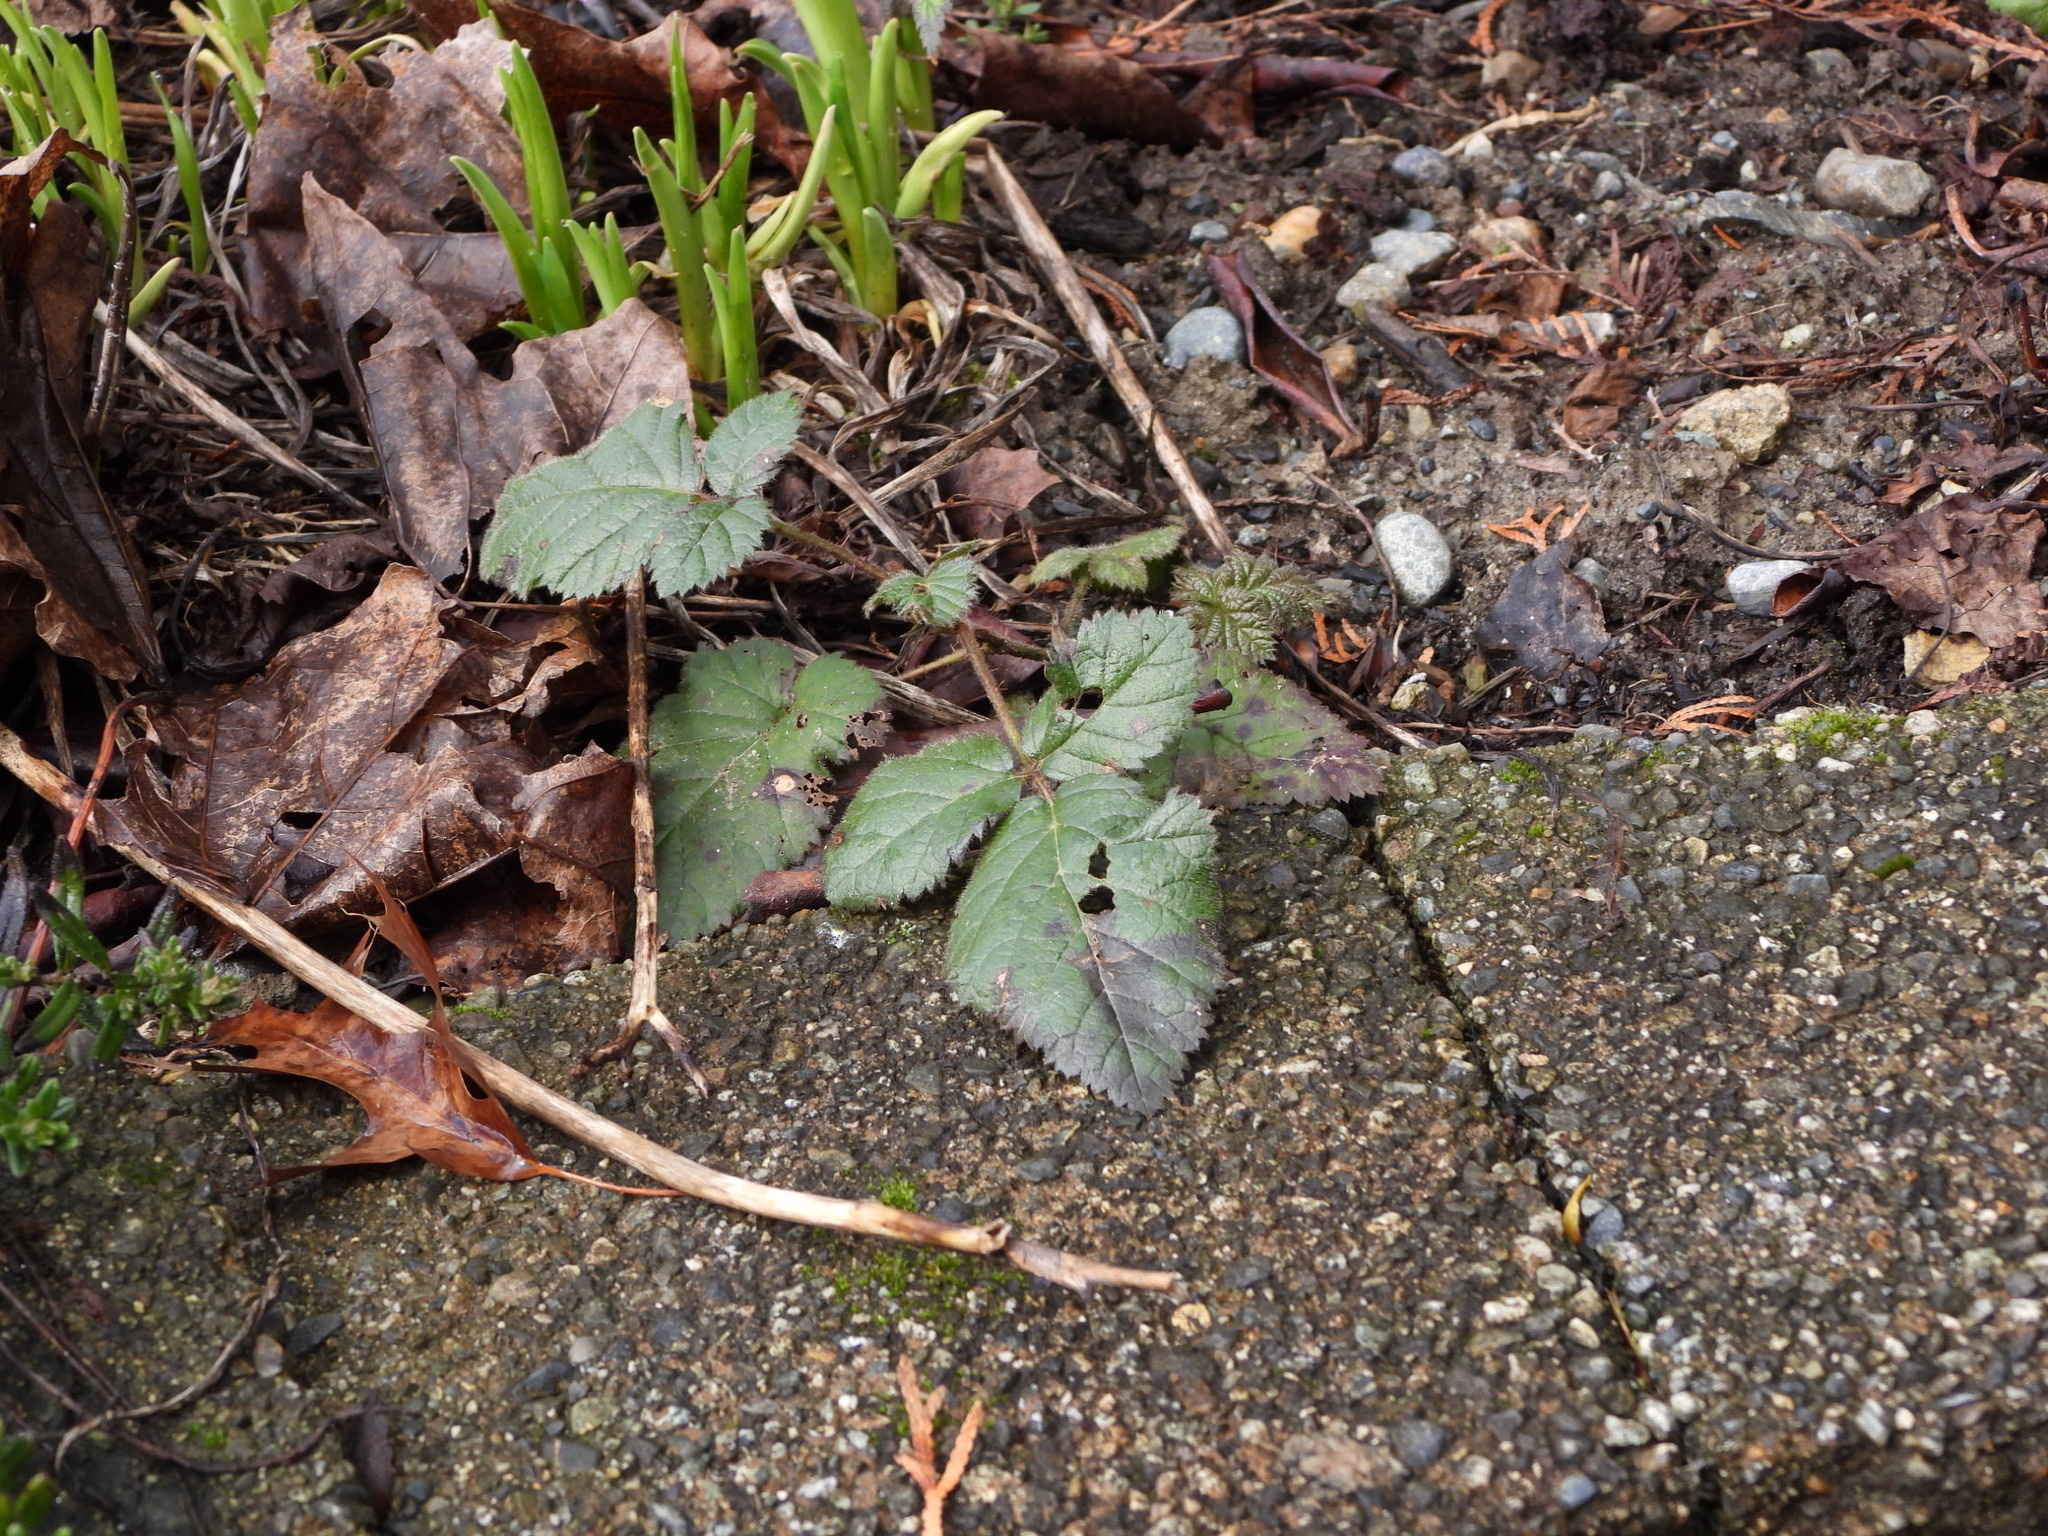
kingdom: Plantae
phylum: Tracheophyta
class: Magnoliopsida
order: Rosales
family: Rosaceae
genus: Rubus
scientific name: Rubus ursinus
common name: Pacific blackberry
